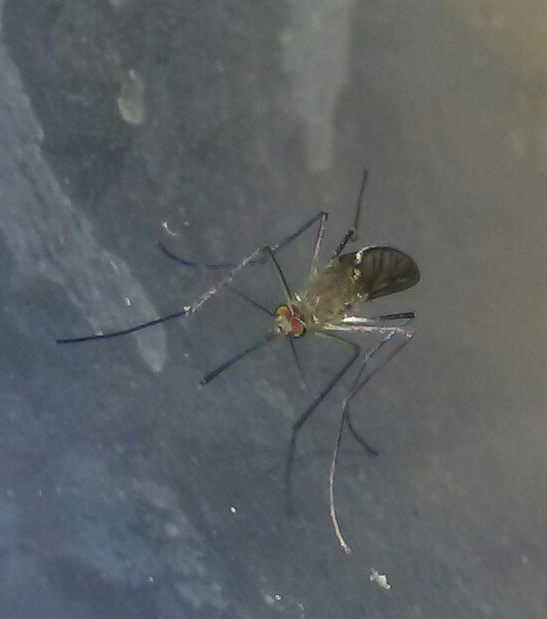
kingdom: Animalia
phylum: Arthropoda
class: Insecta
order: Diptera
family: Culicidae
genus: Culex
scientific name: Culex erraticus
